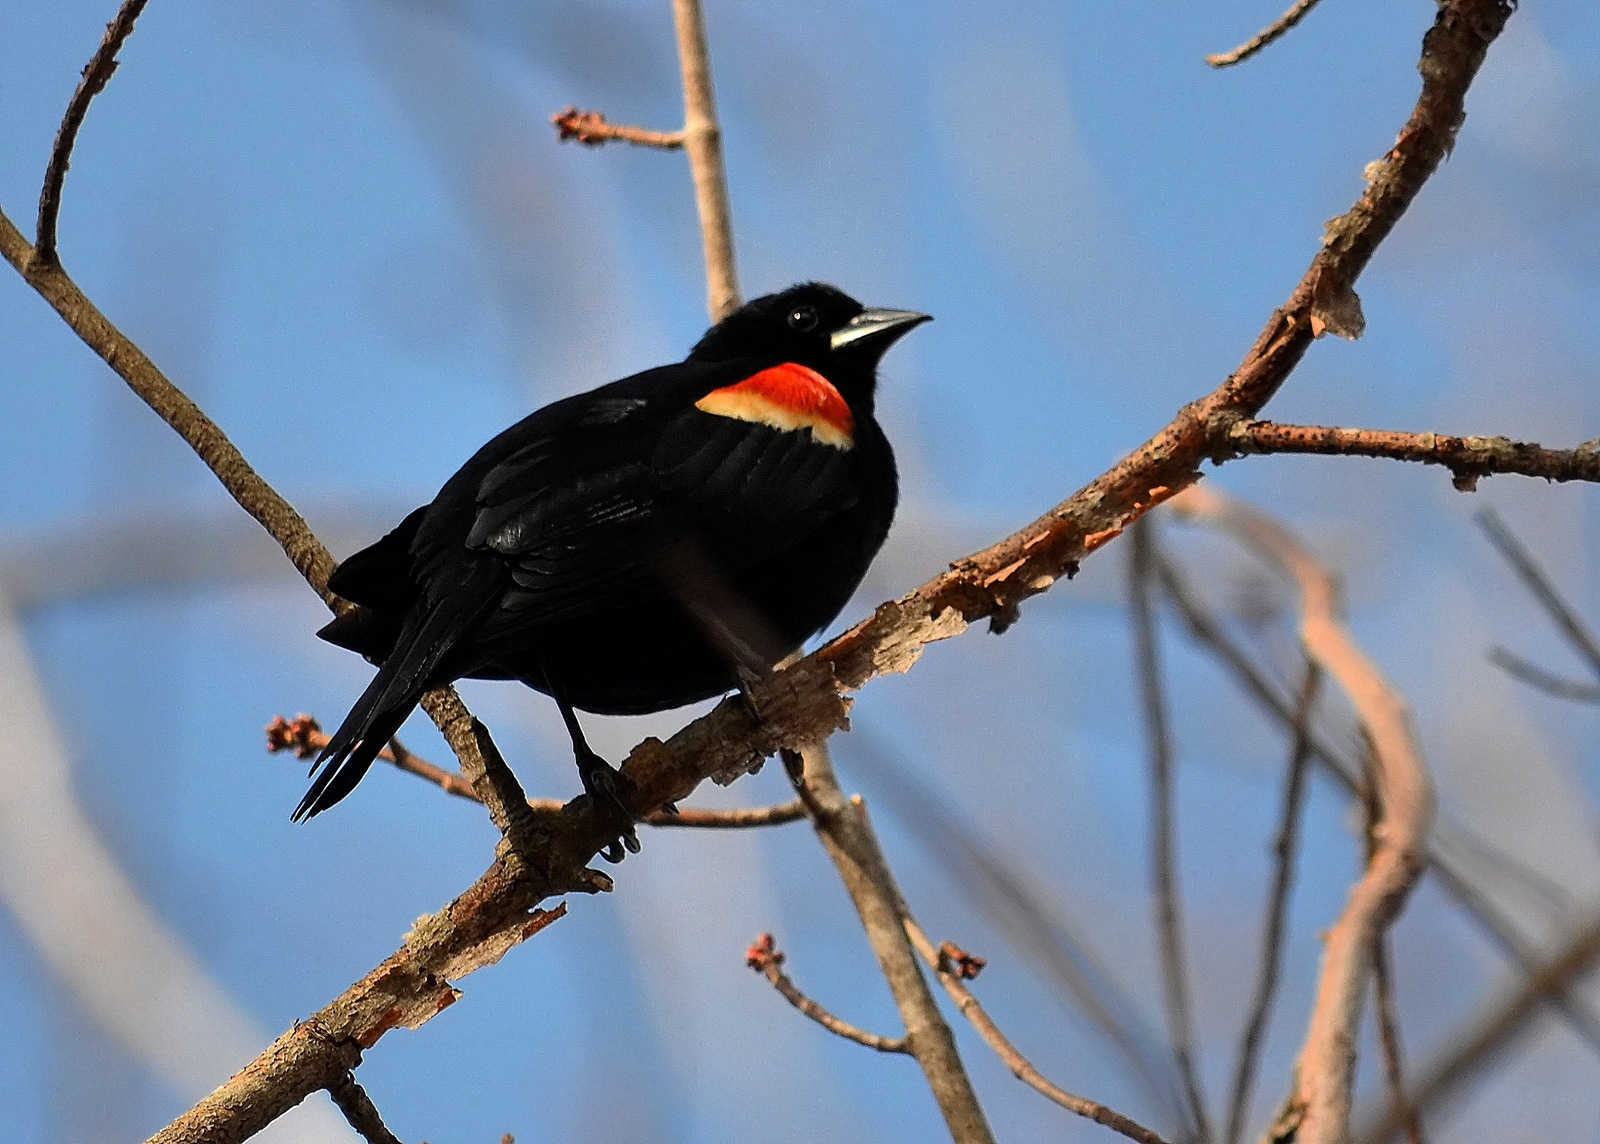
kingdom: Animalia
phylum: Chordata
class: Aves
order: Passeriformes
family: Icteridae
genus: Agelaius
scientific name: Agelaius phoeniceus
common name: Red-winged blackbird
